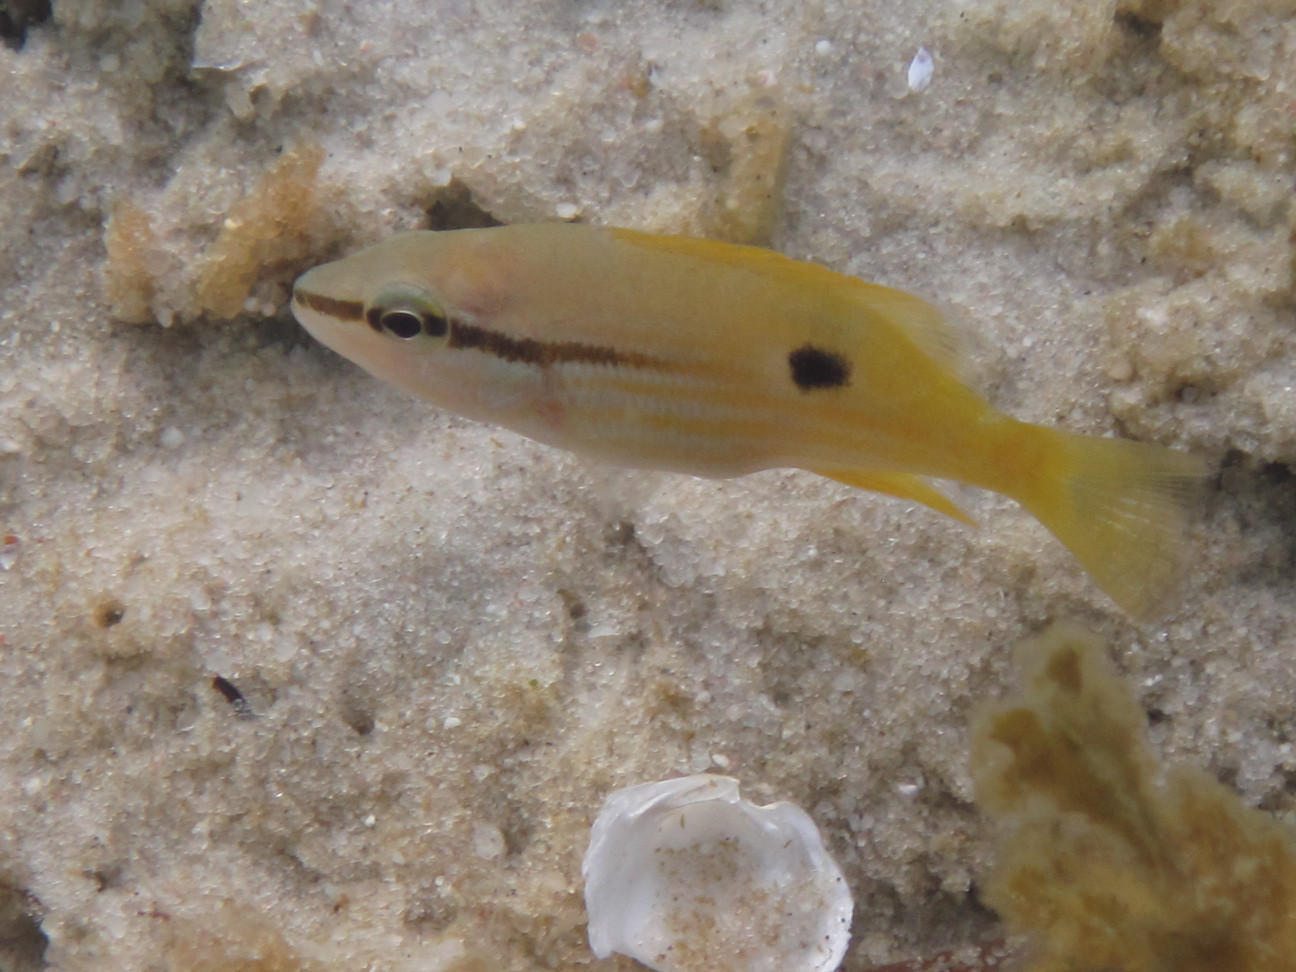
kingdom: Animalia
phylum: Chordata
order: Perciformes
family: Lutjanidae
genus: Lutjanus
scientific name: Lutjanus fulviflamma
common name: Blackspot snapper
